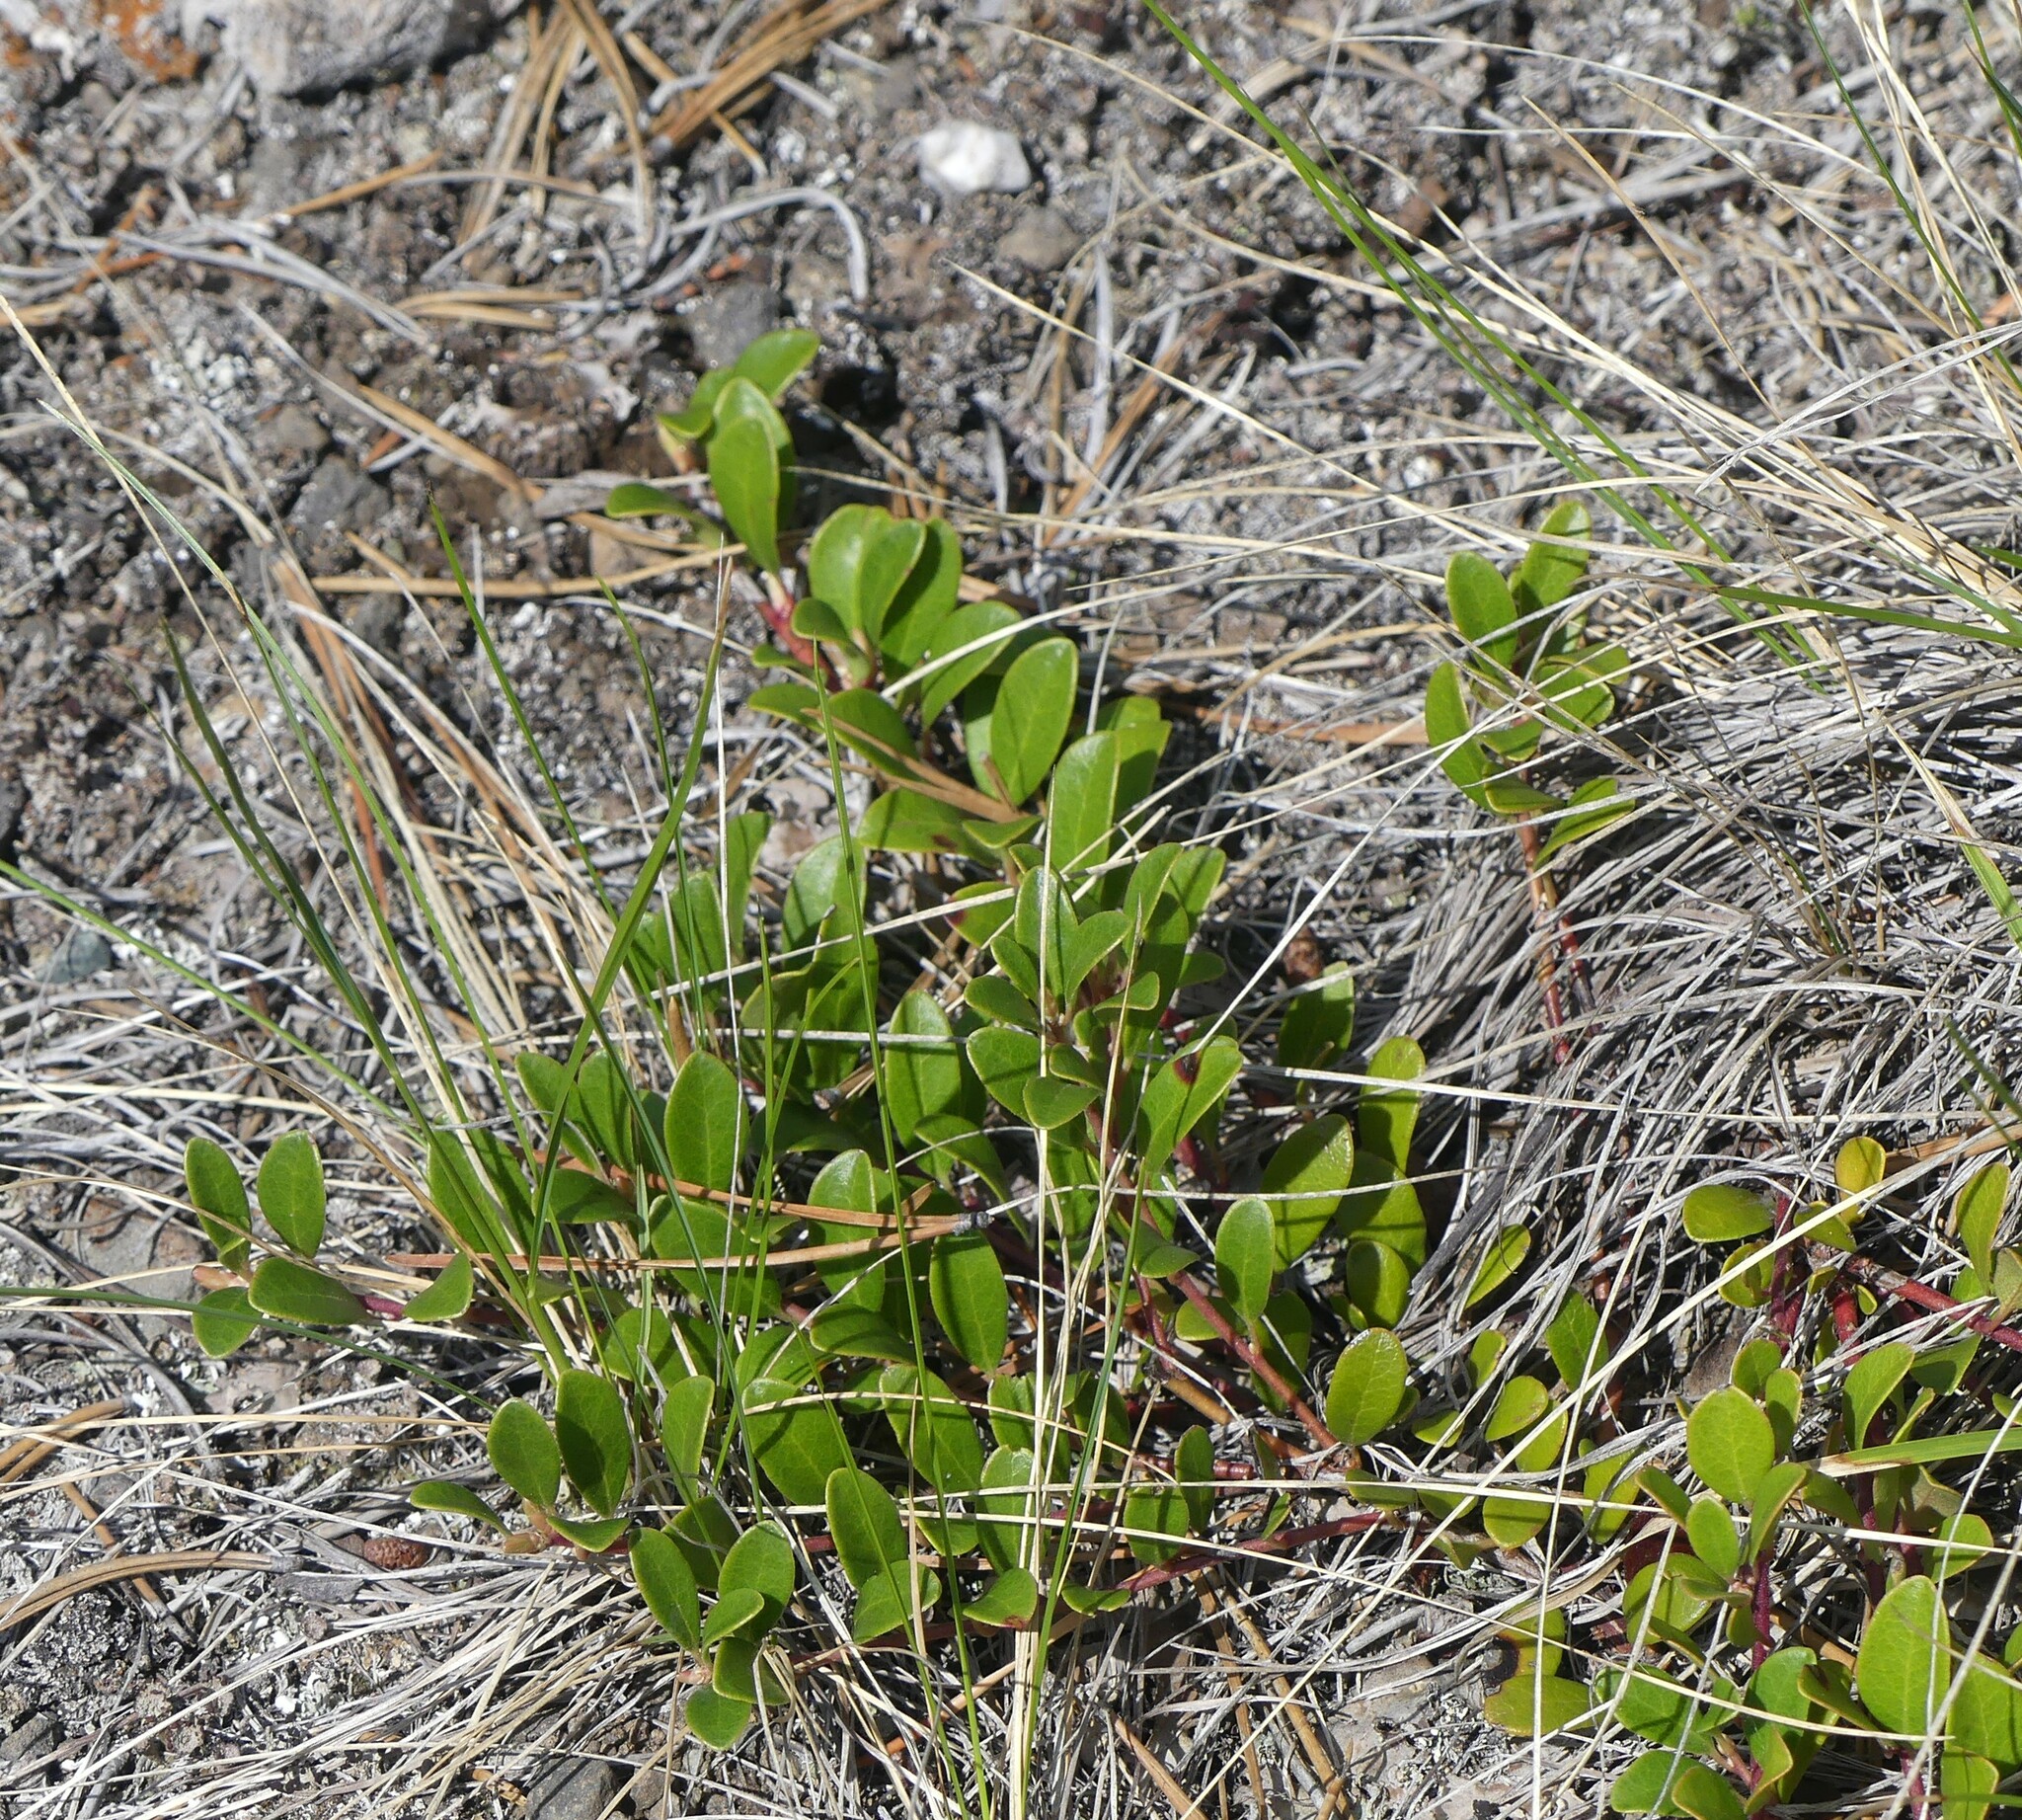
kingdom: Plantae
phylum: Tracheophyta
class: Magnoliopsida
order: Ericales
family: Ericaceae
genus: Arctostaphylos
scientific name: Arctostaphylos uva-ursi
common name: Bearberry
